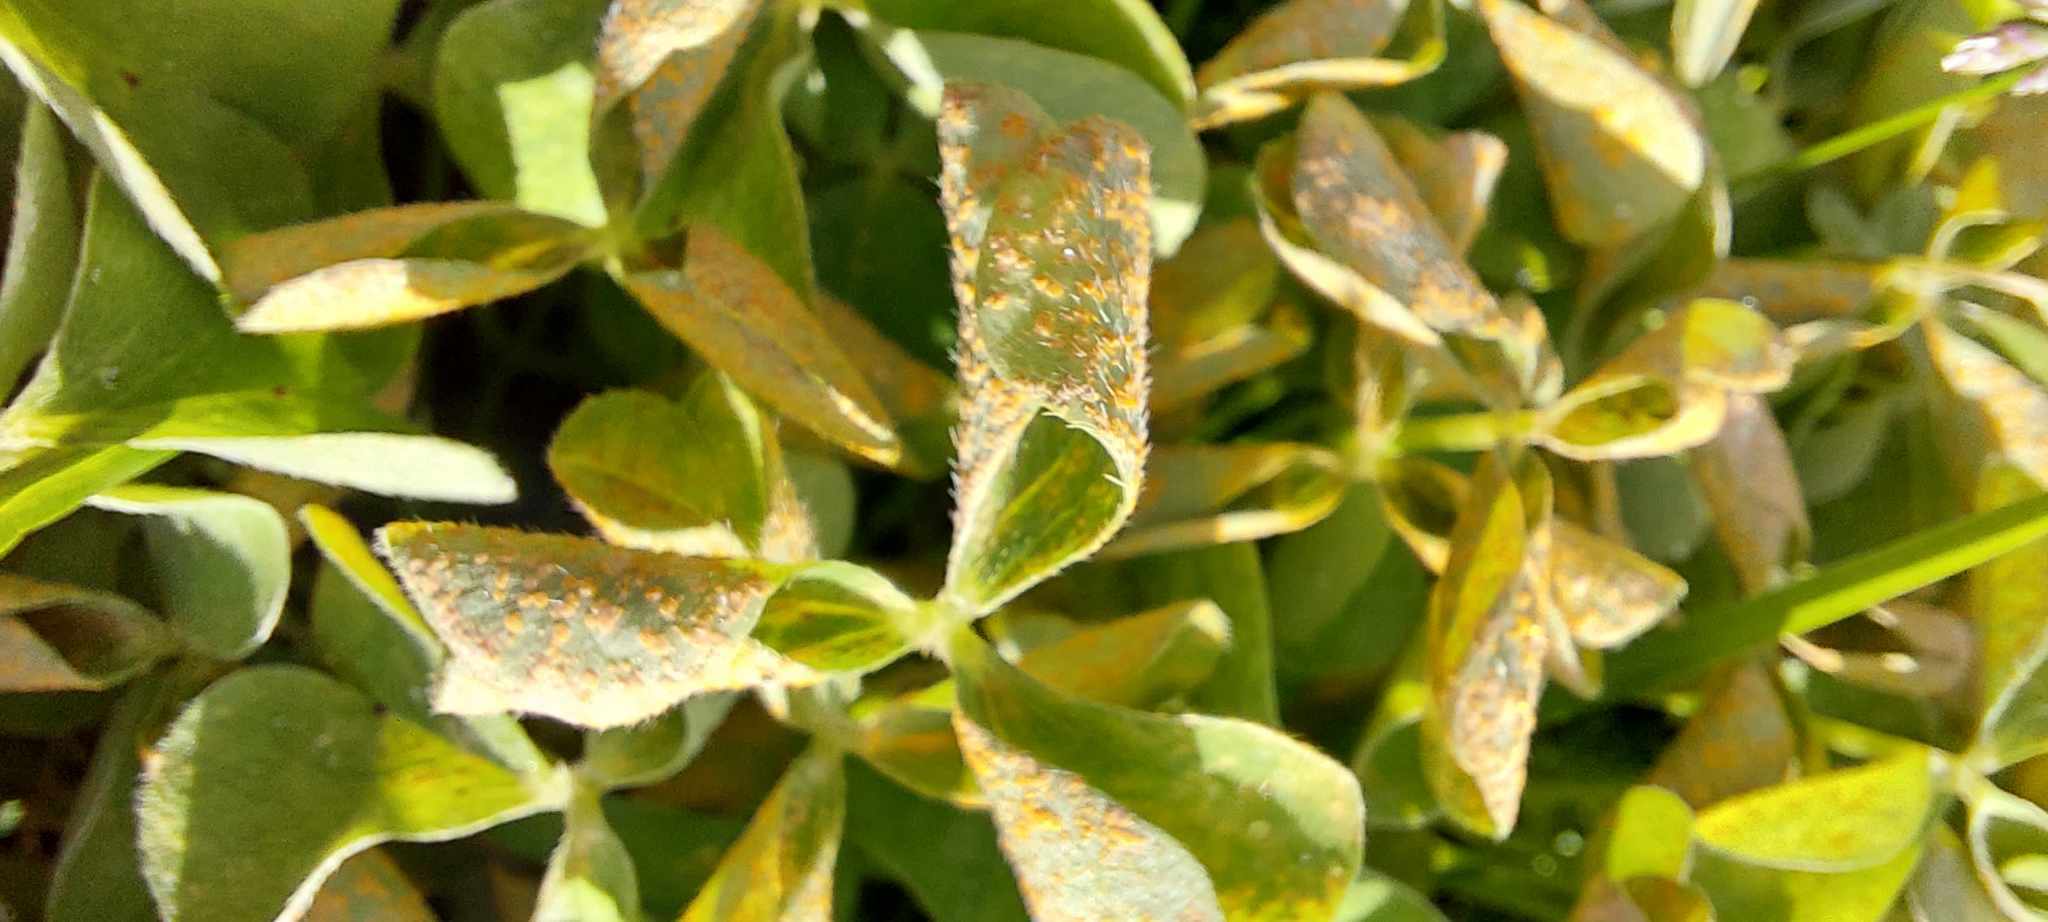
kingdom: Fungi
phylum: Basidiomycota
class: Pucciniomycetes
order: Pucciniales
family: Pucciniaceae
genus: Puccinia
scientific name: Puccinia oxalidis
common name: Oxalis rust
